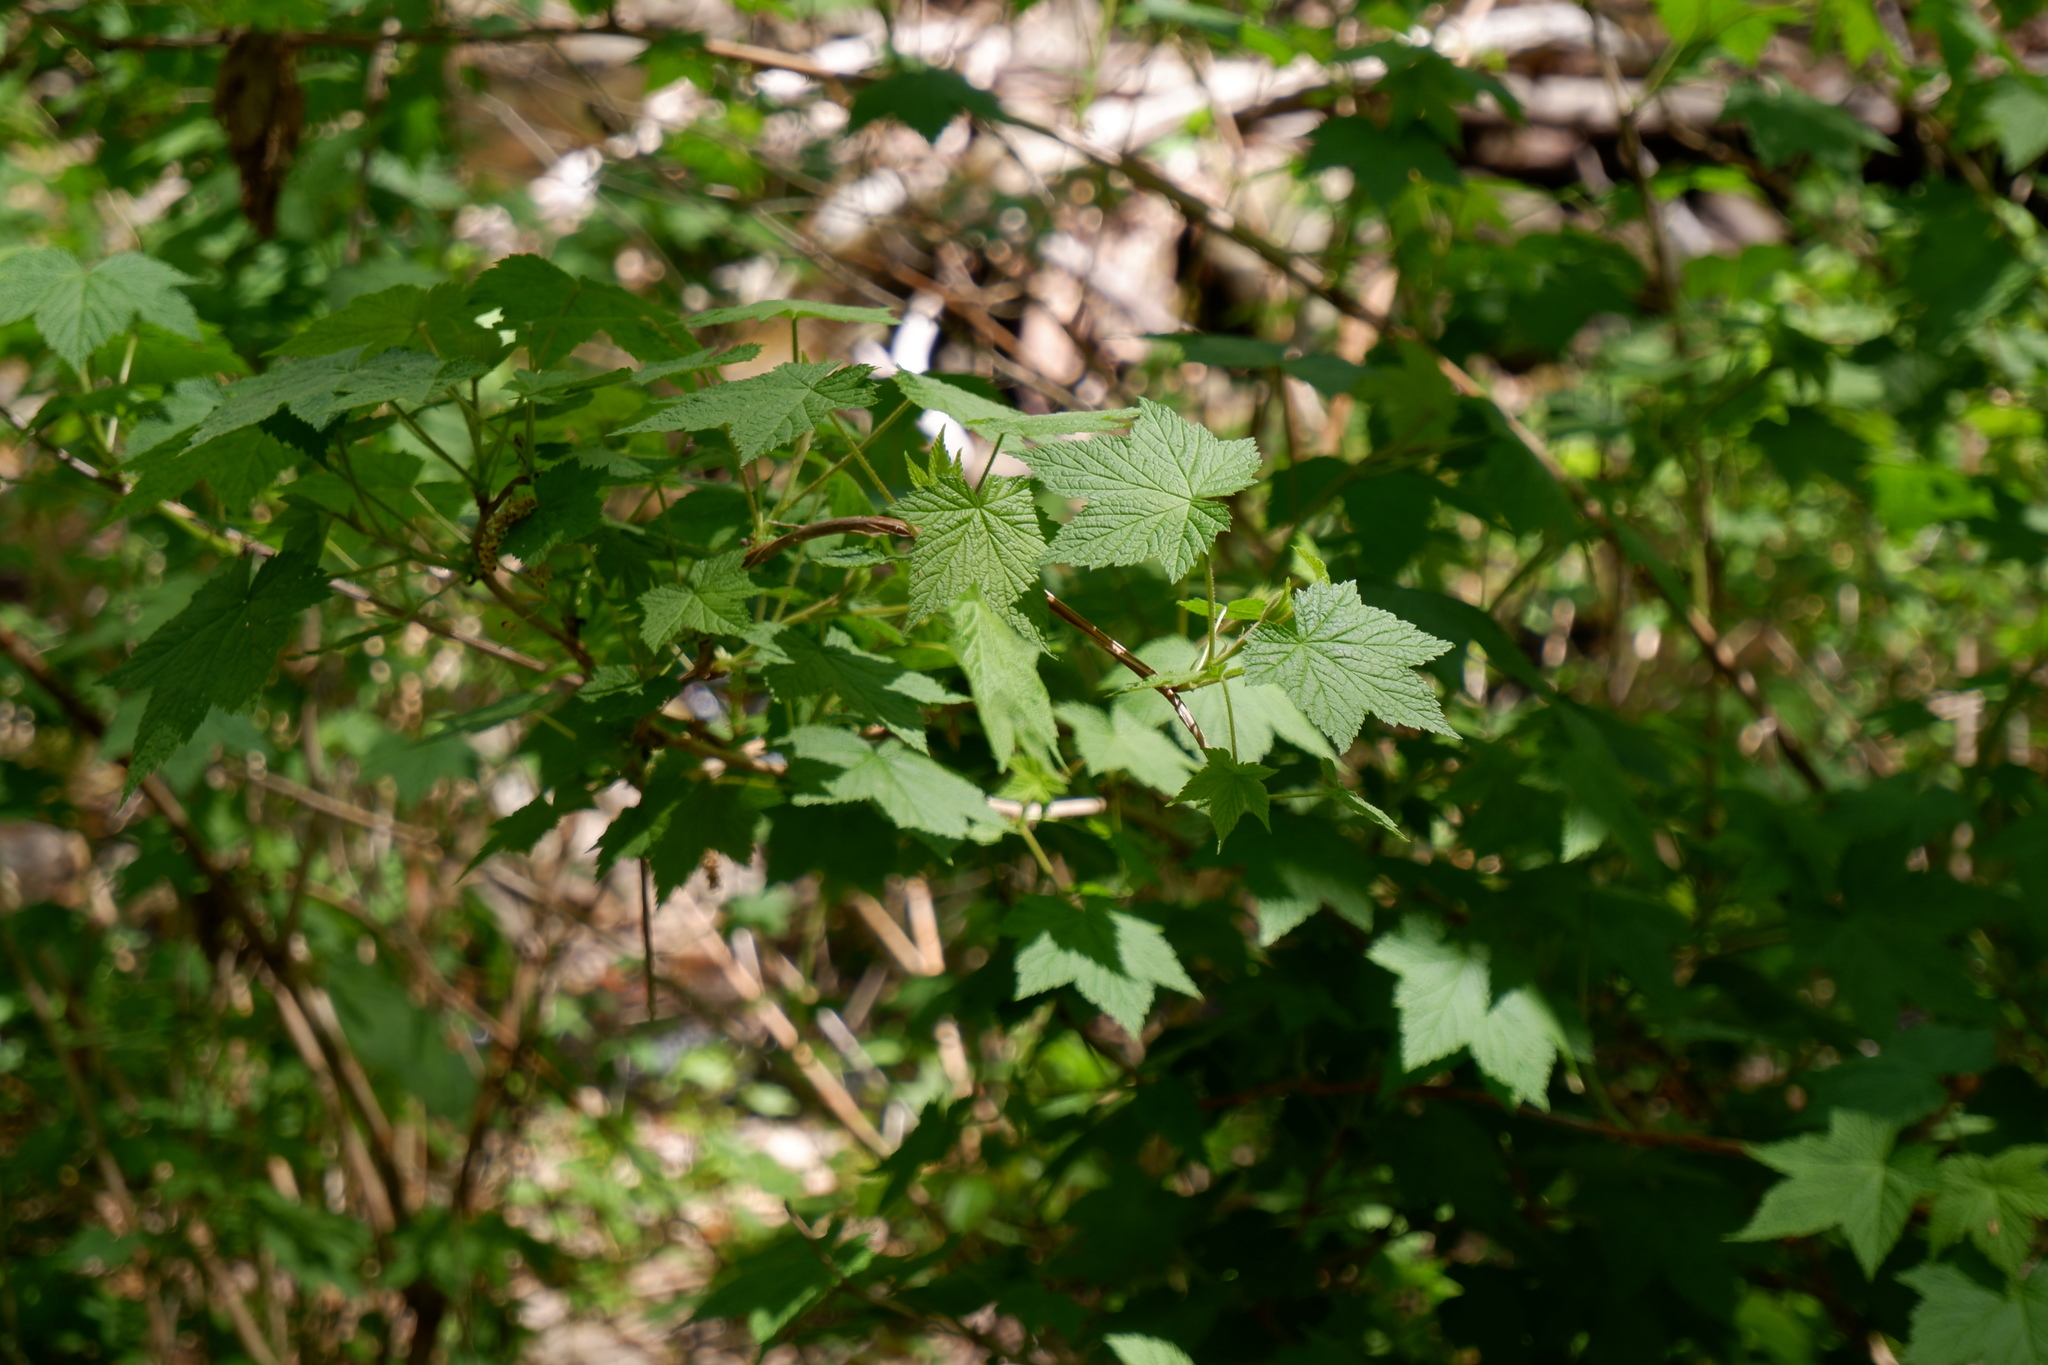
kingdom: Plantae
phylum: Tracheophyta
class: Magnoliopsida
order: Rosales
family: Rosaceae
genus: Rubus
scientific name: Rubus odoratus
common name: Purple-flowered raspberry
